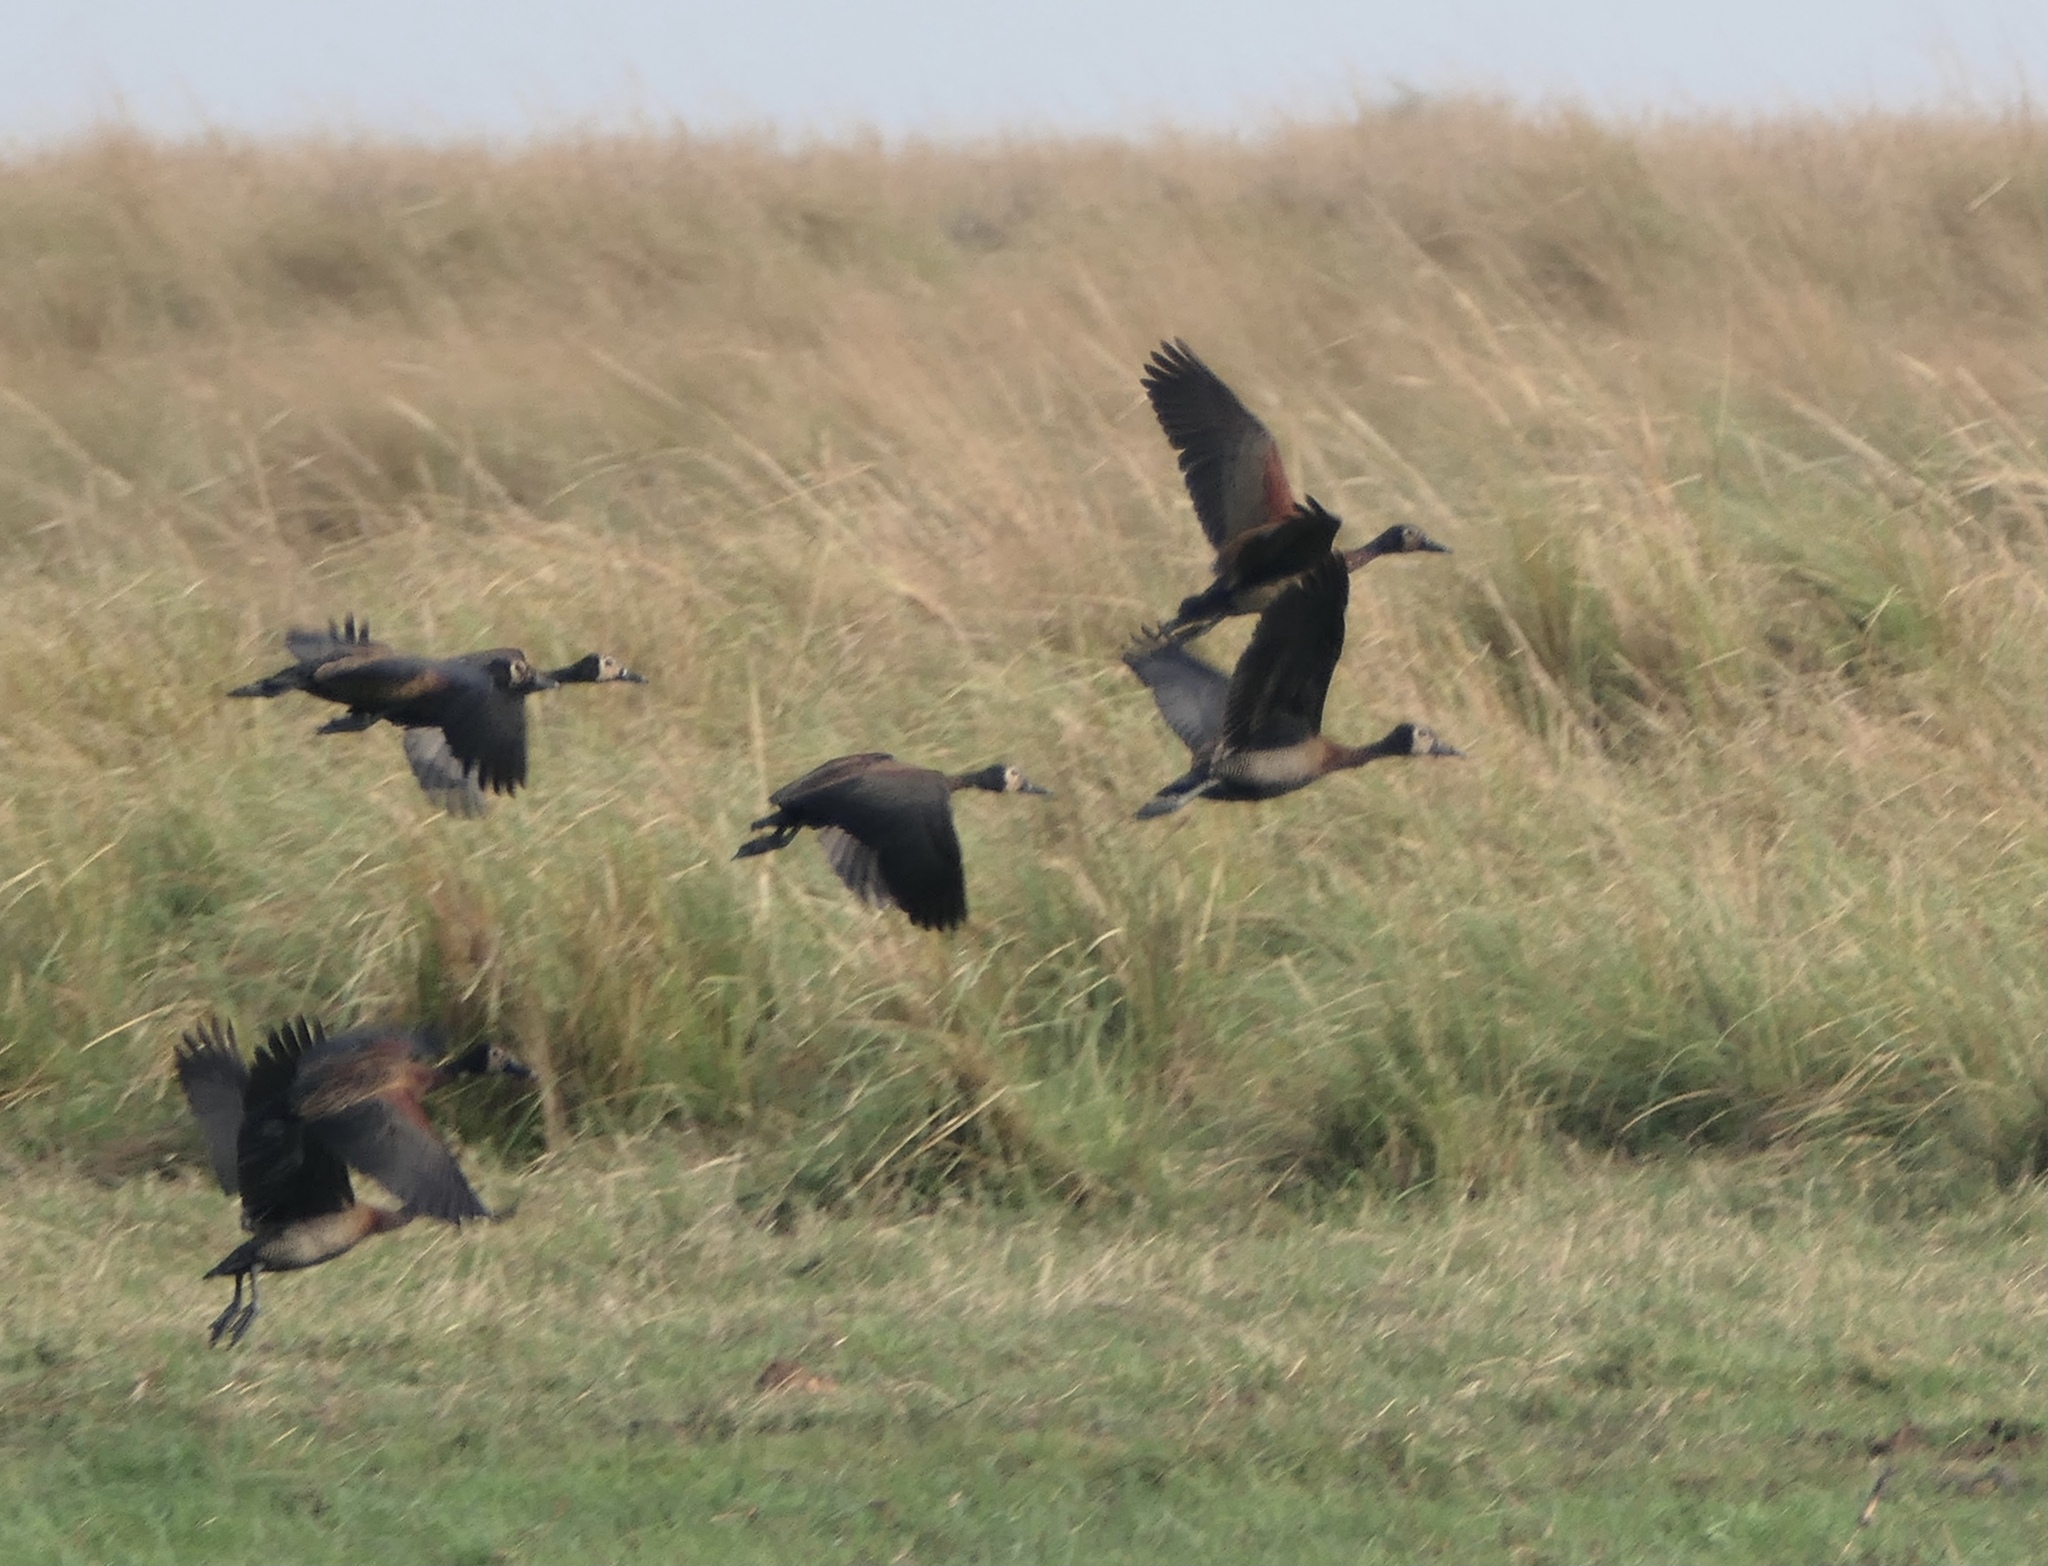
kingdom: Animalia
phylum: Chordata
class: Aves
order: Anseriformes
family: Anatidae
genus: Dendrocygna
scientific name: Dendrocygna viduata
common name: White-faced whistling duck
